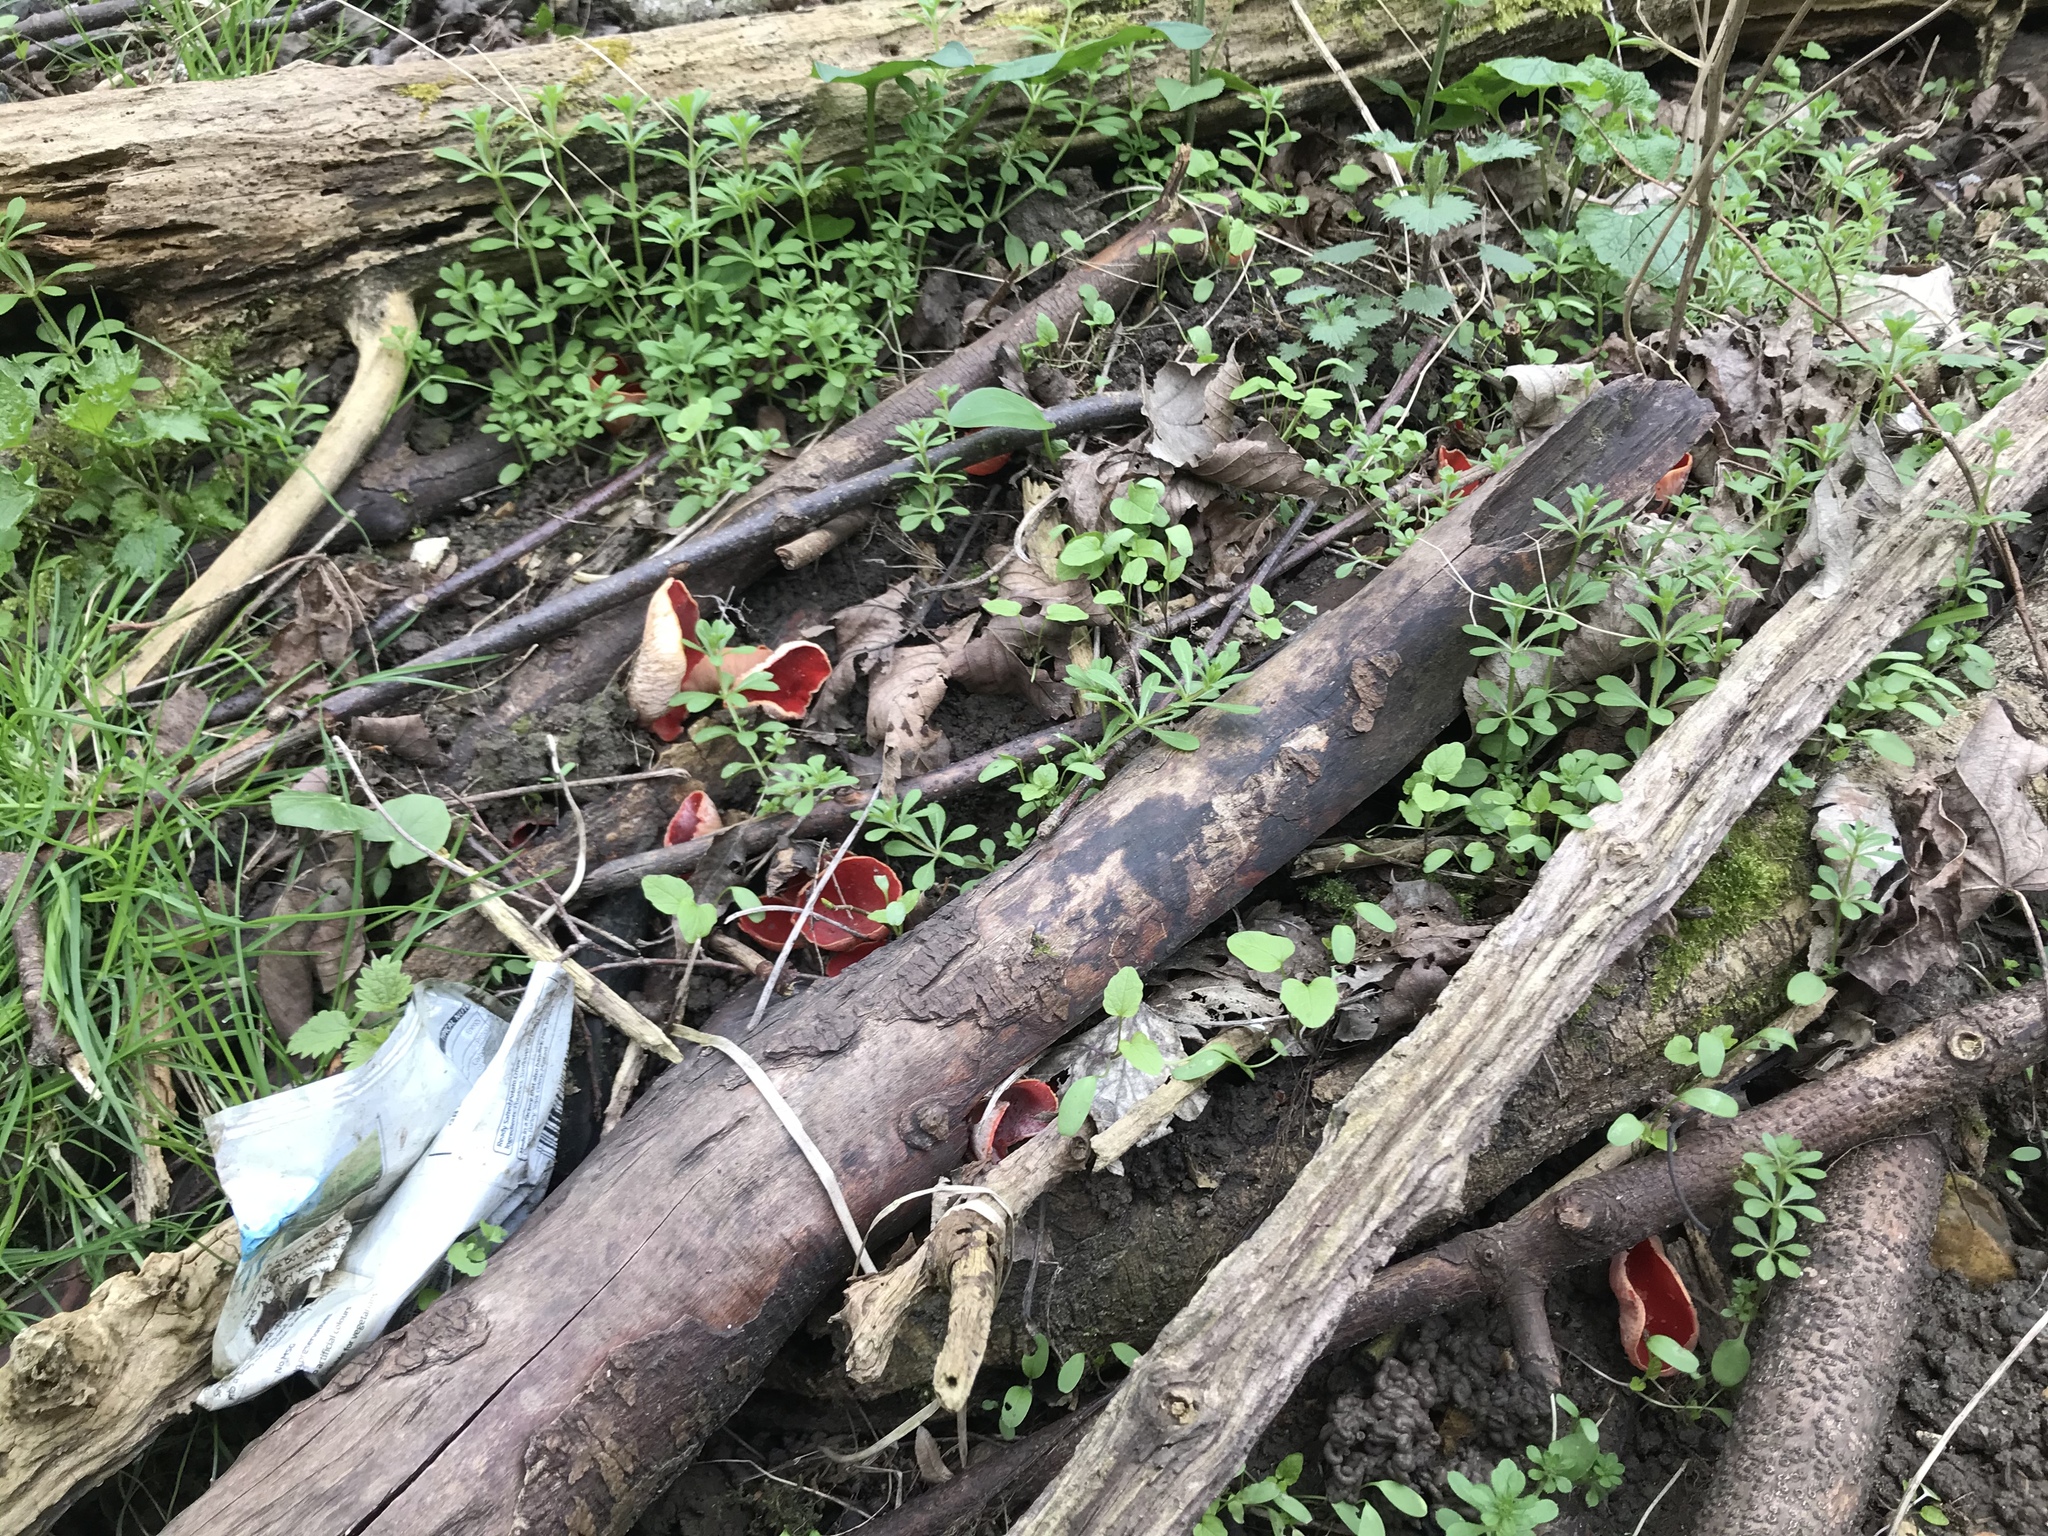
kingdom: Fungi
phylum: Ascomycota
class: Pezizomycetes
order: Pezizales
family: Sarcoscyphaceae
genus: Sarcoscypha
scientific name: Sarcoscypha
